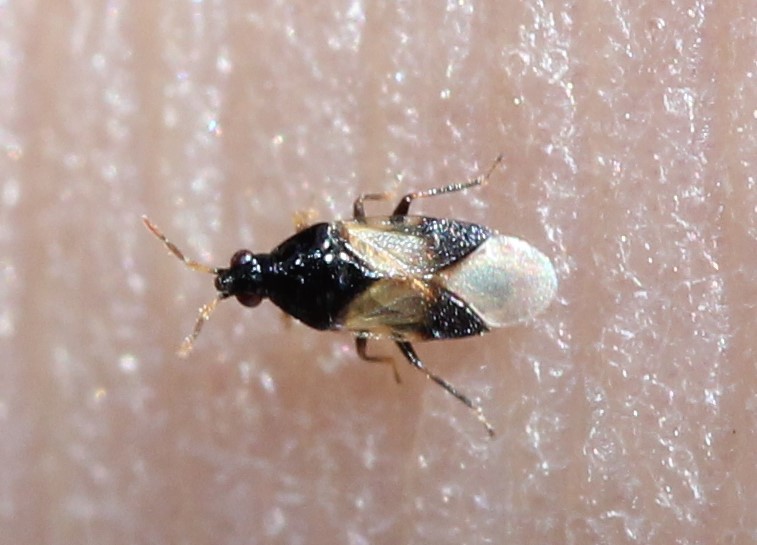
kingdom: Animalia
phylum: Arthropoda
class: Insecta
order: Hemiptera
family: Anthocoridae
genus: Orius
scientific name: Orius insidiosus
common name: Insidious flower bug
